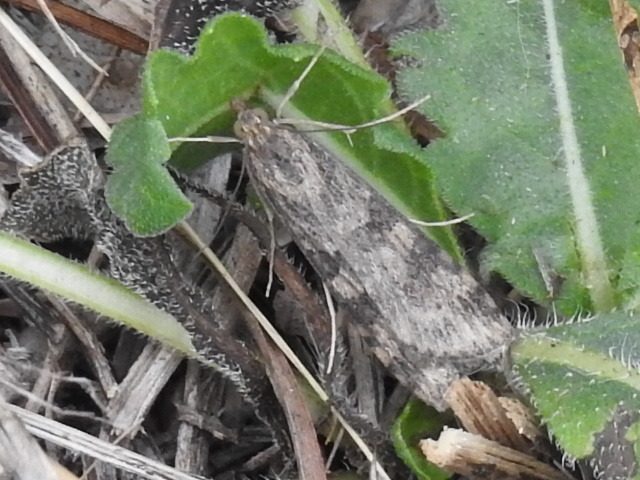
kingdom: Animalia
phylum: Arthropoda
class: Insecta
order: Lepidoptera
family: Crambidae
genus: Nomophila
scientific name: Nomophila nearctica
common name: American rush veneer
